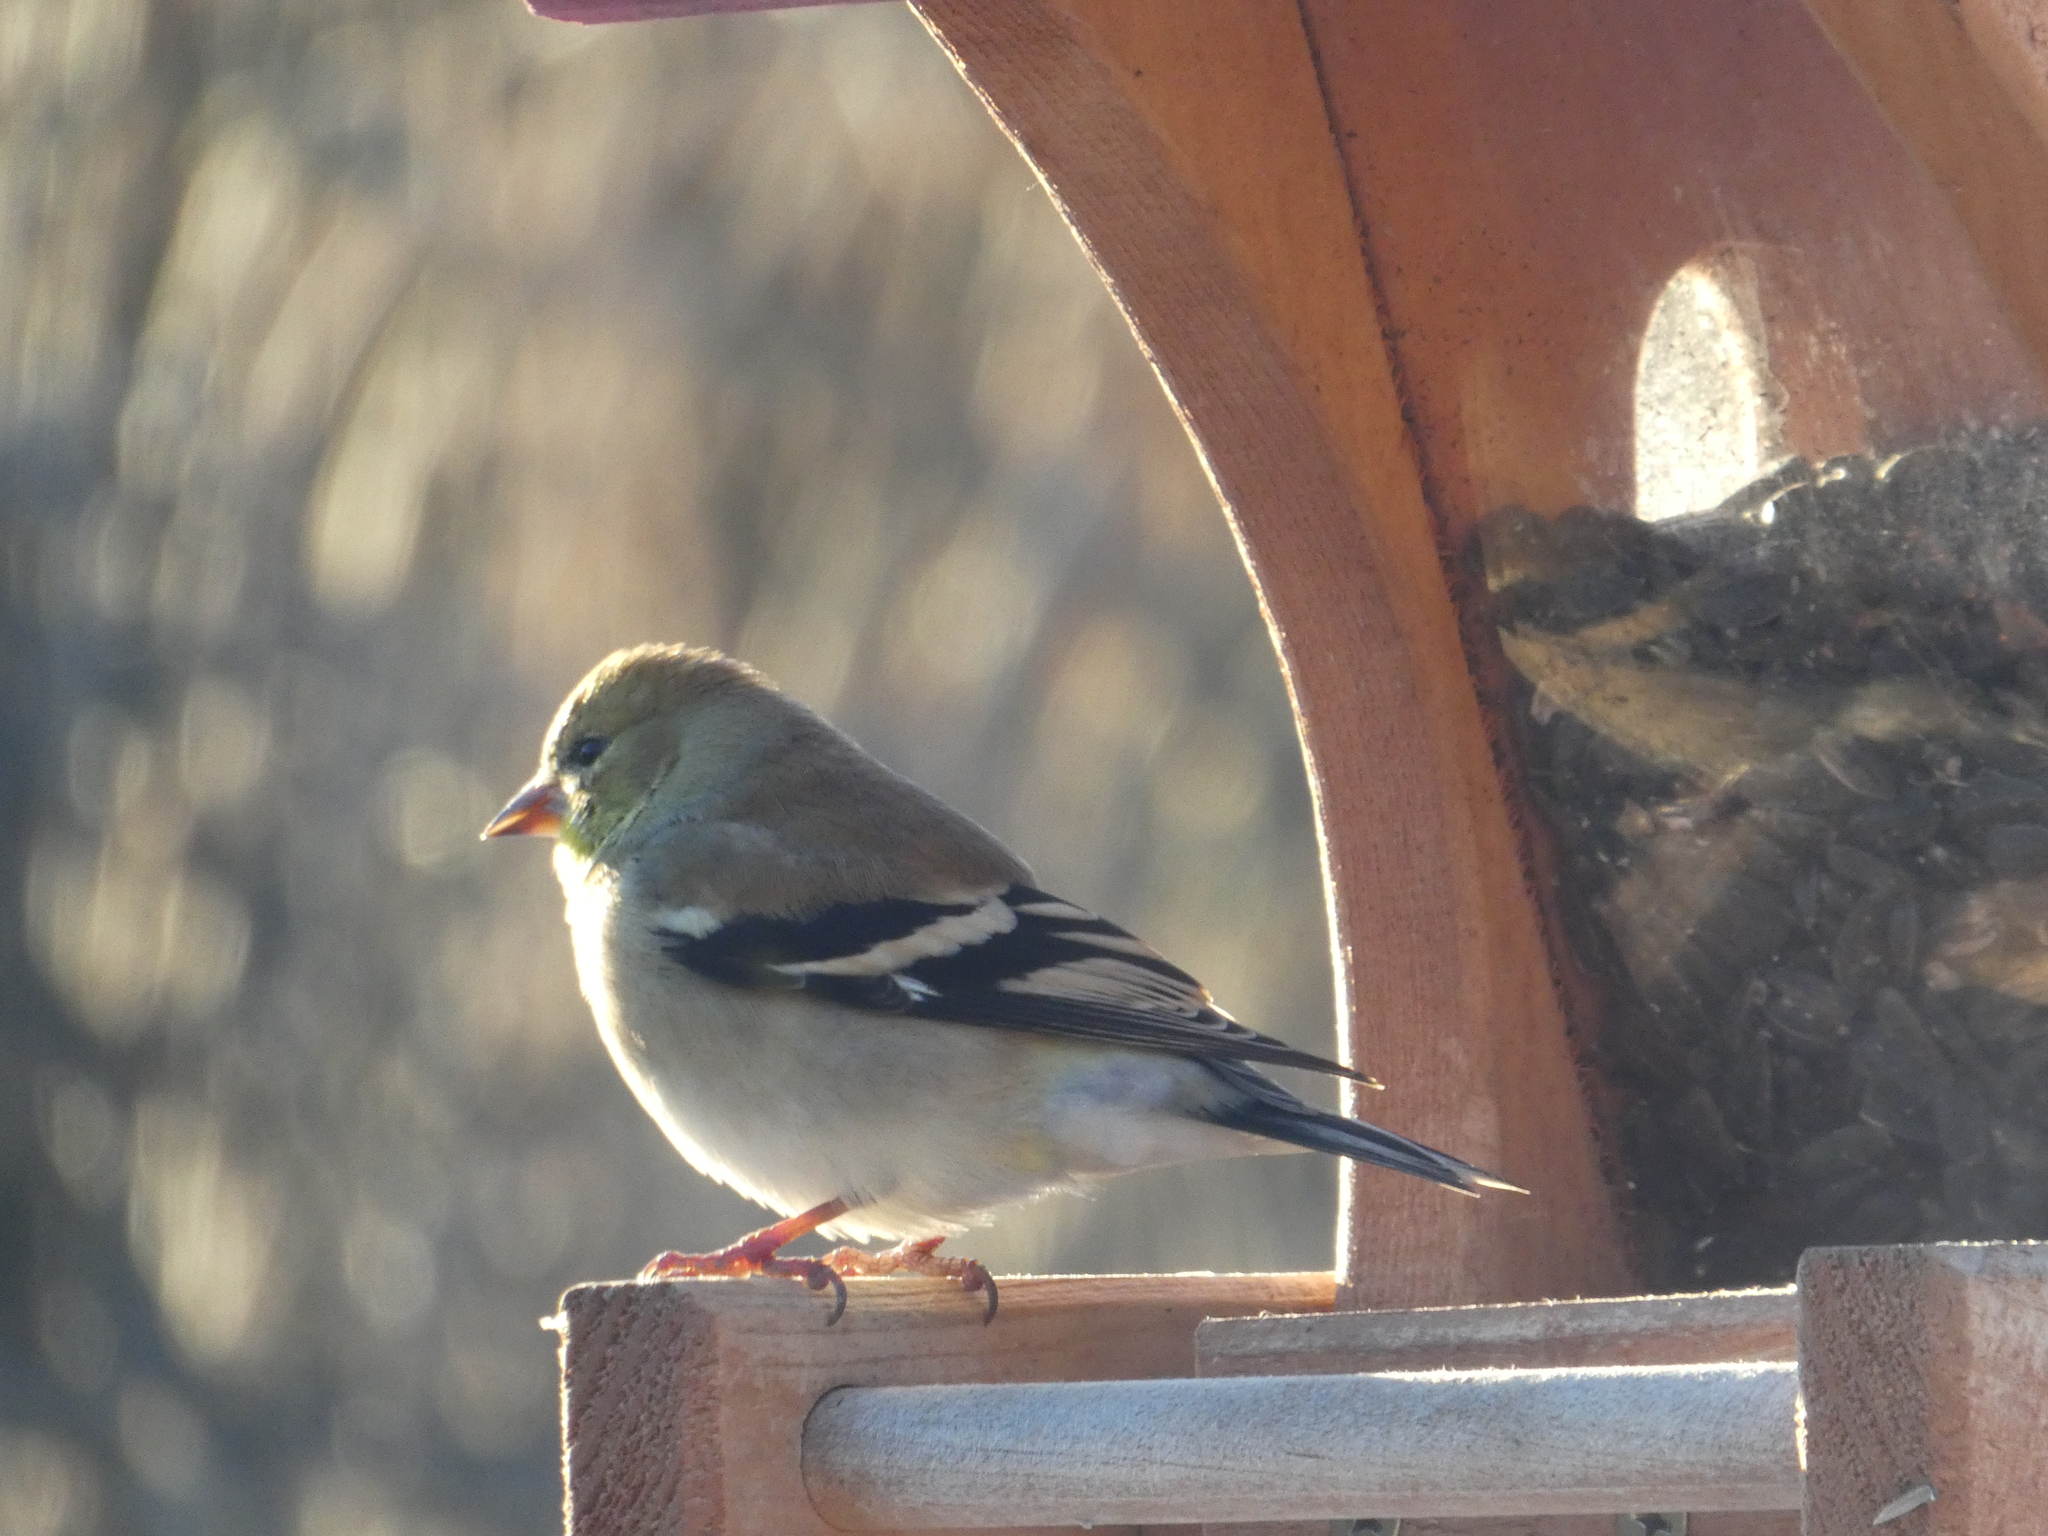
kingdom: Animalia
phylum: Chordata
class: Aves
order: Passeriformes
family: Fringillidae
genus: Spinus
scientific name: Spinus tristis
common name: American goldfinch
